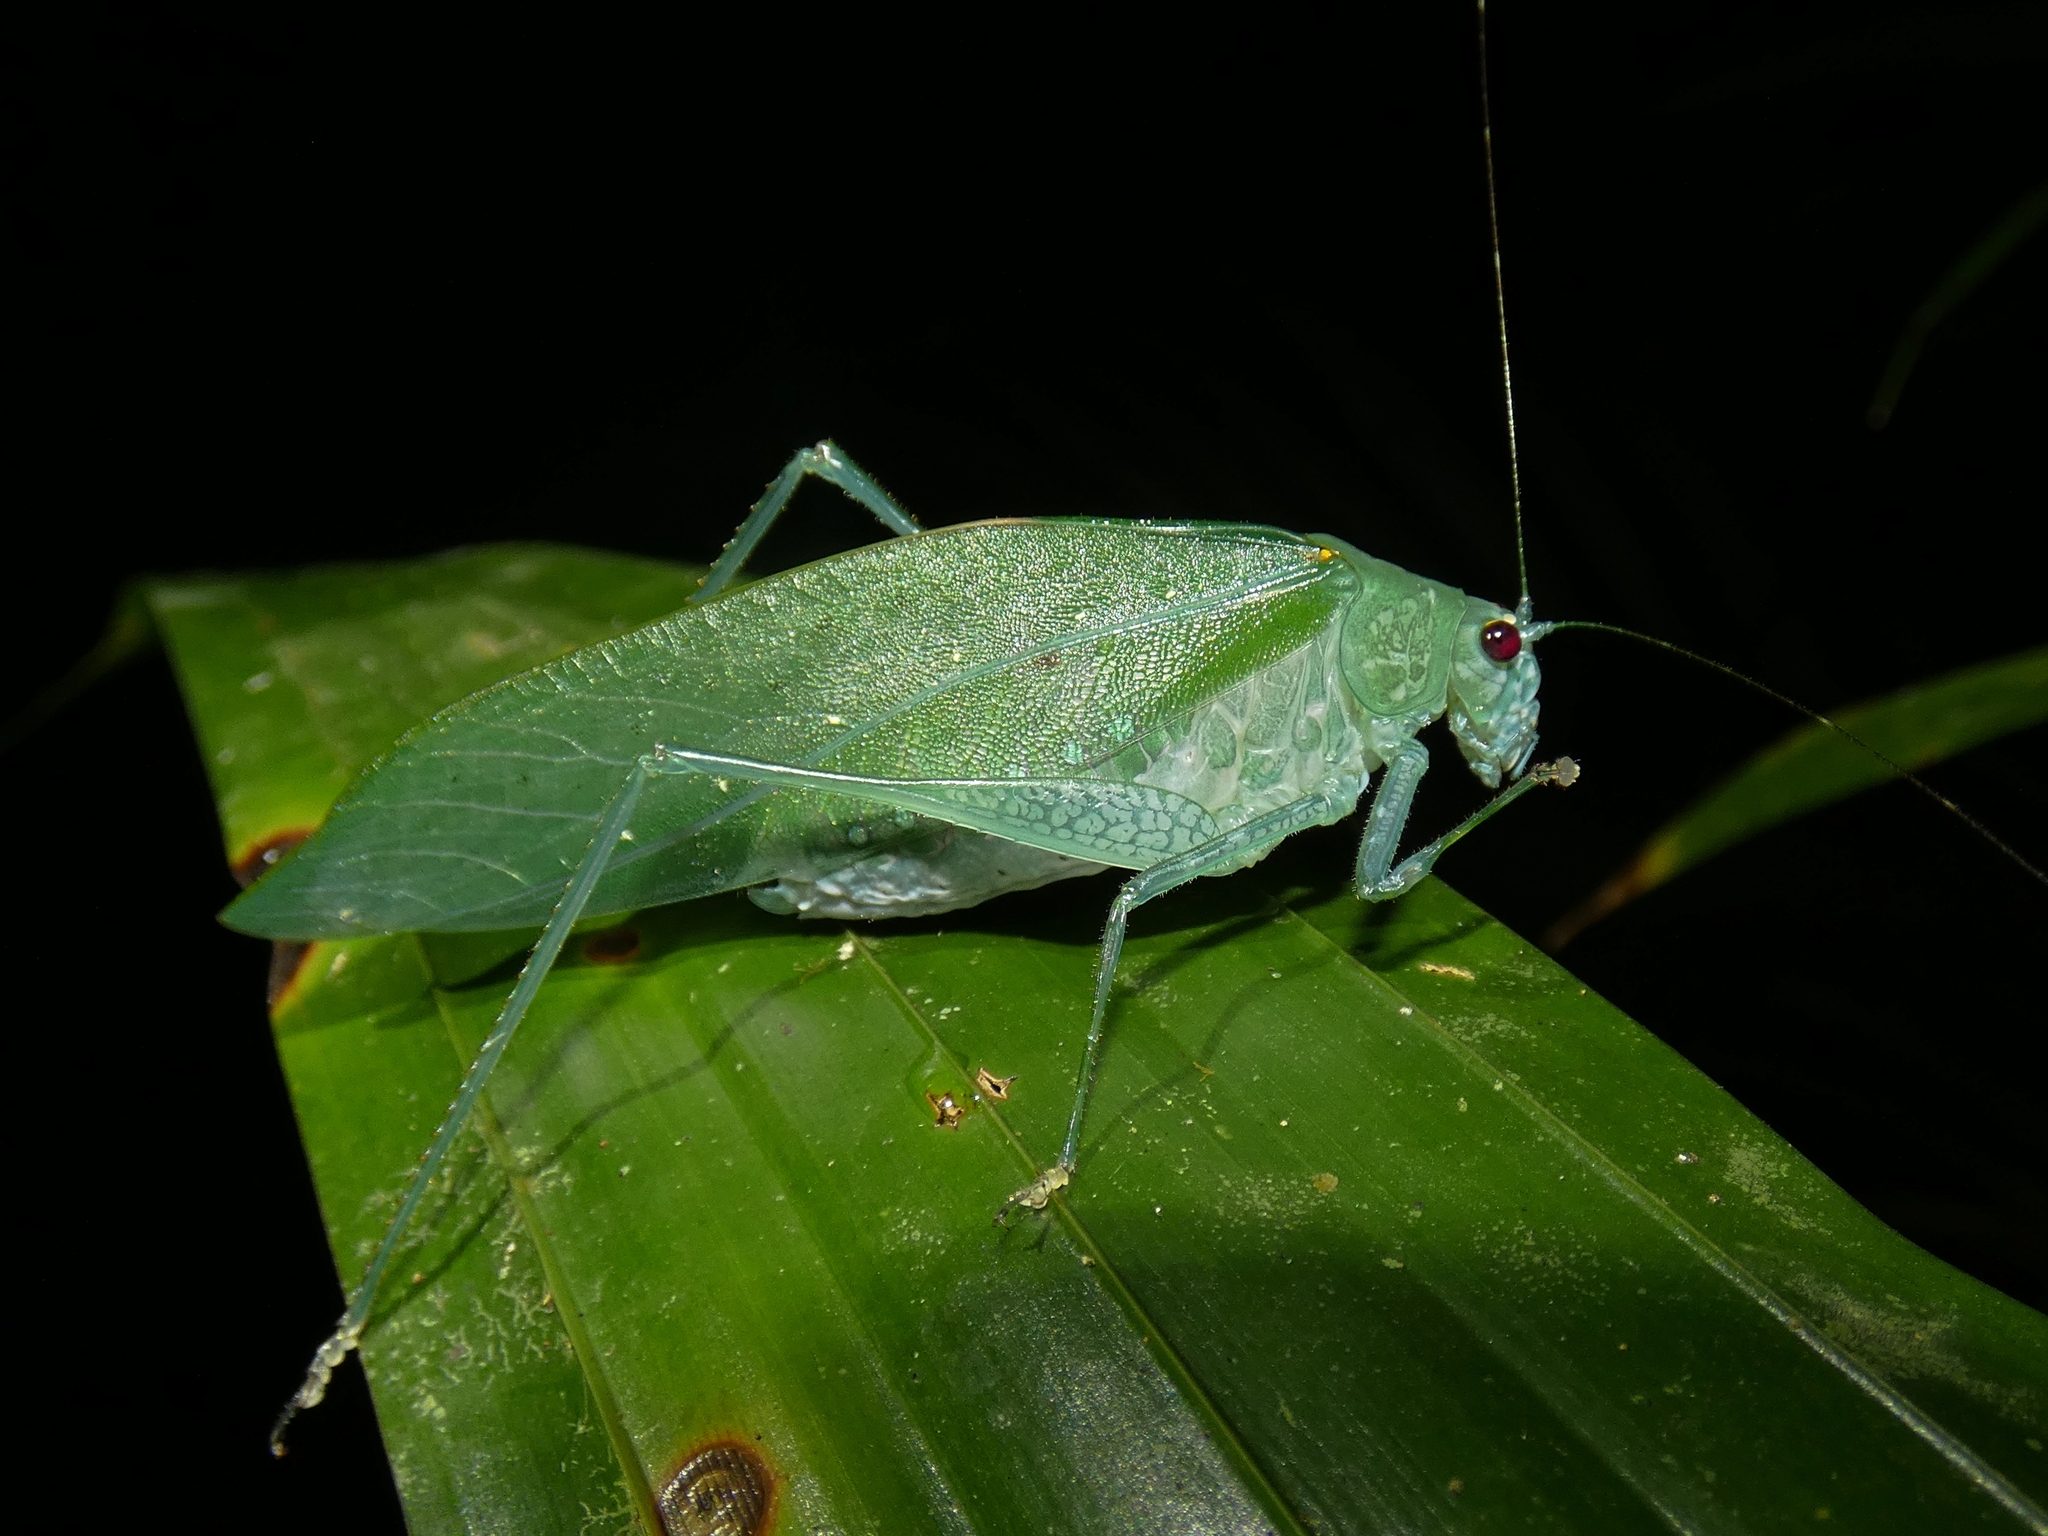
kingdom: Animalia
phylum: Arthropoda
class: Insecta
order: Orthoptera
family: Tettigoniidae
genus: Caedicia
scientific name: Caedicia webberi
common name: Webber's caedicia
